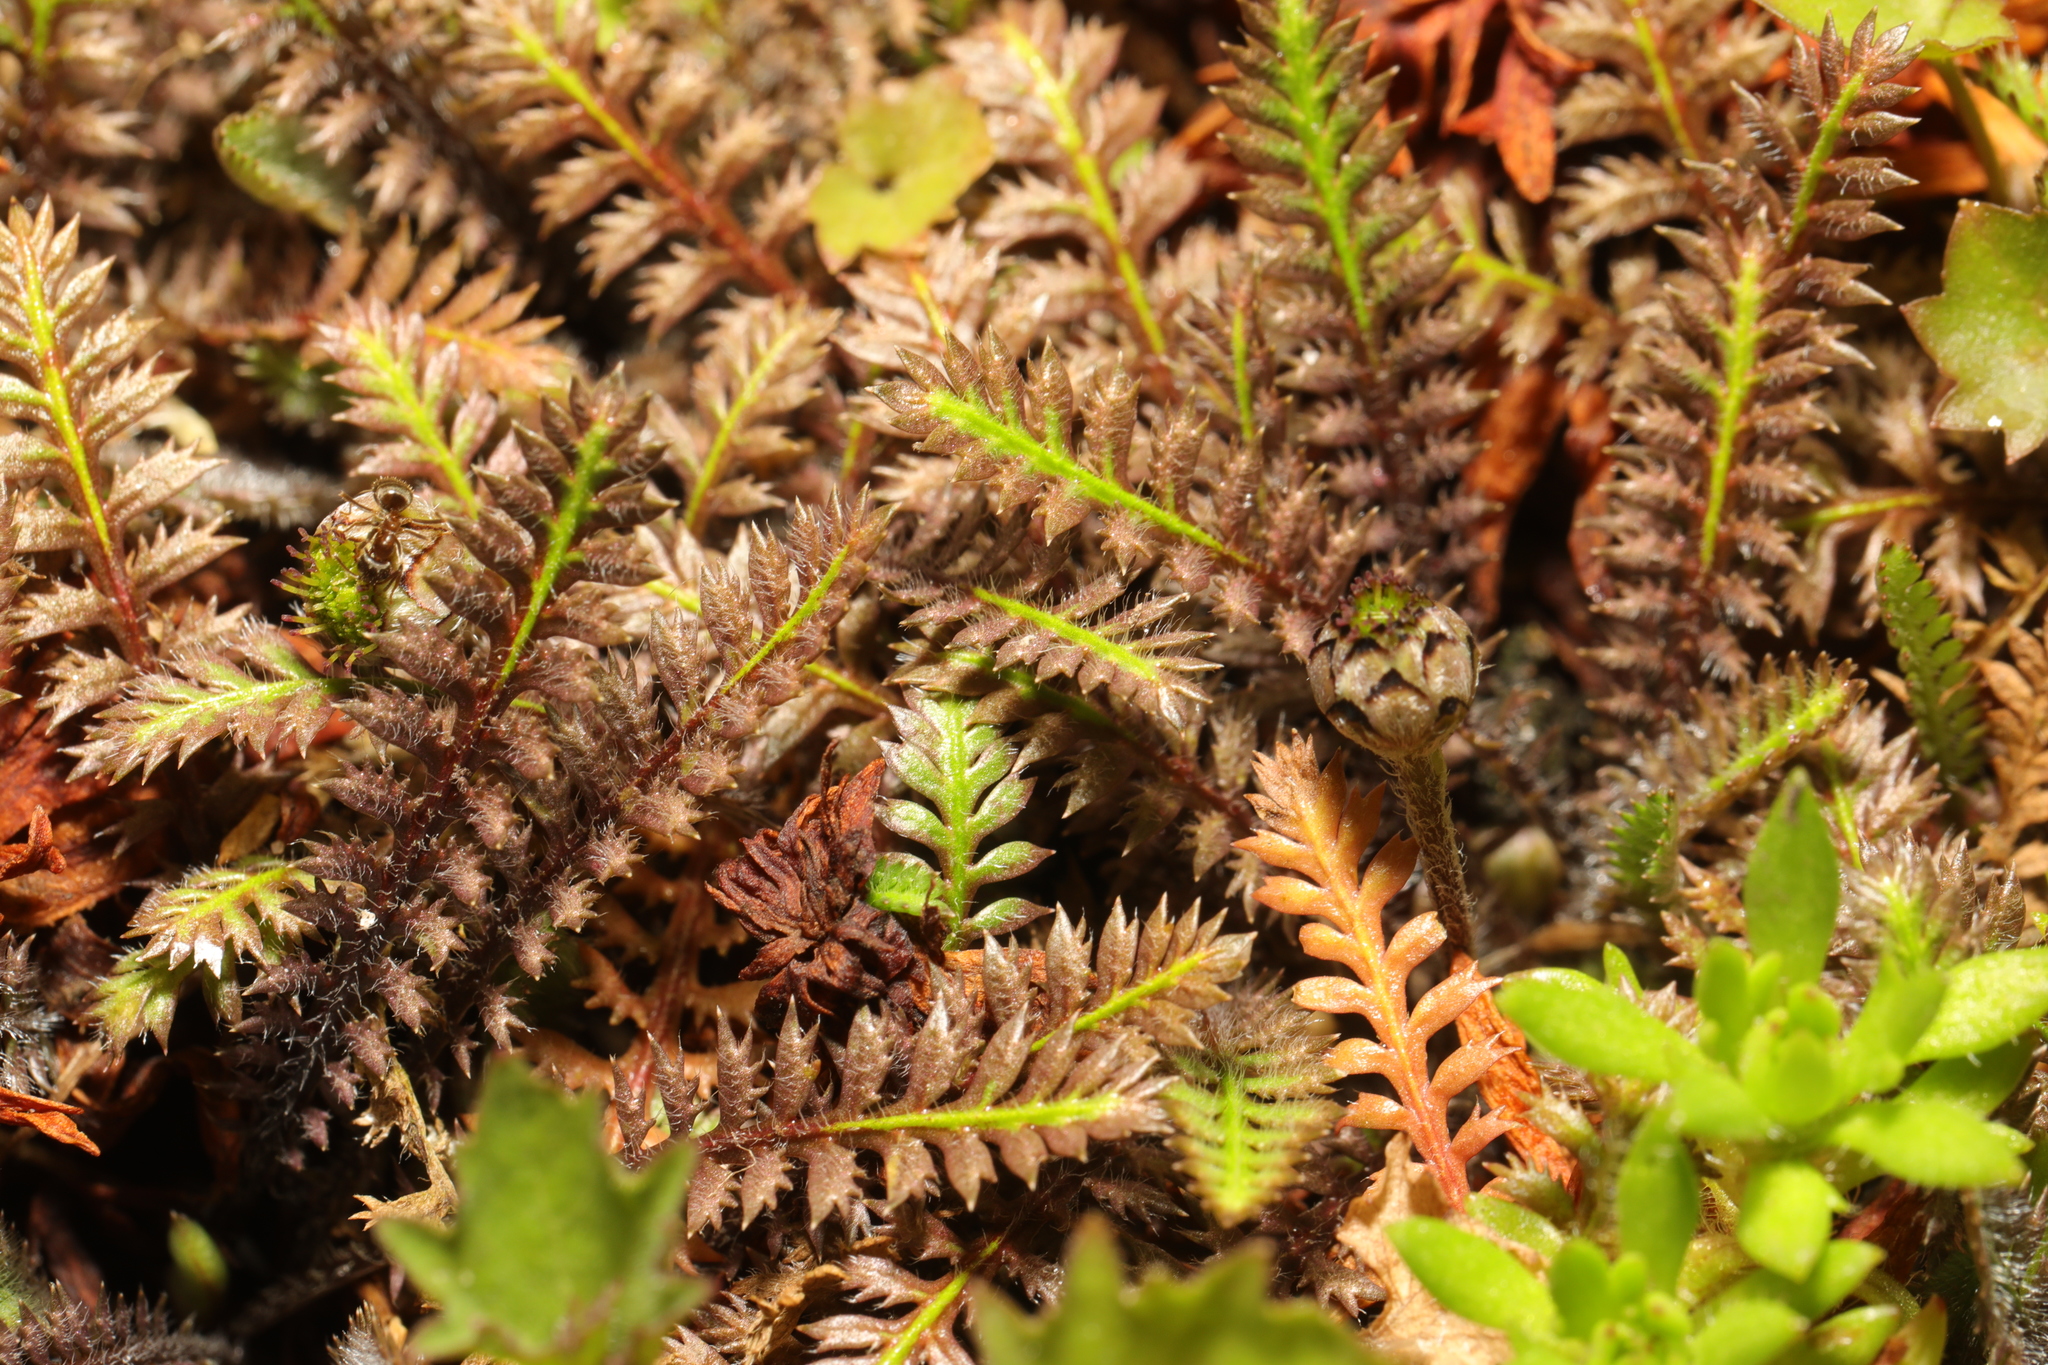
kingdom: Plantae
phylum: Tracheophyta
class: Magnoliopsida
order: Asterales
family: Asteraceae
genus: Leptinella
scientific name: Leptinella squalida
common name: New zealand brass-buttons
